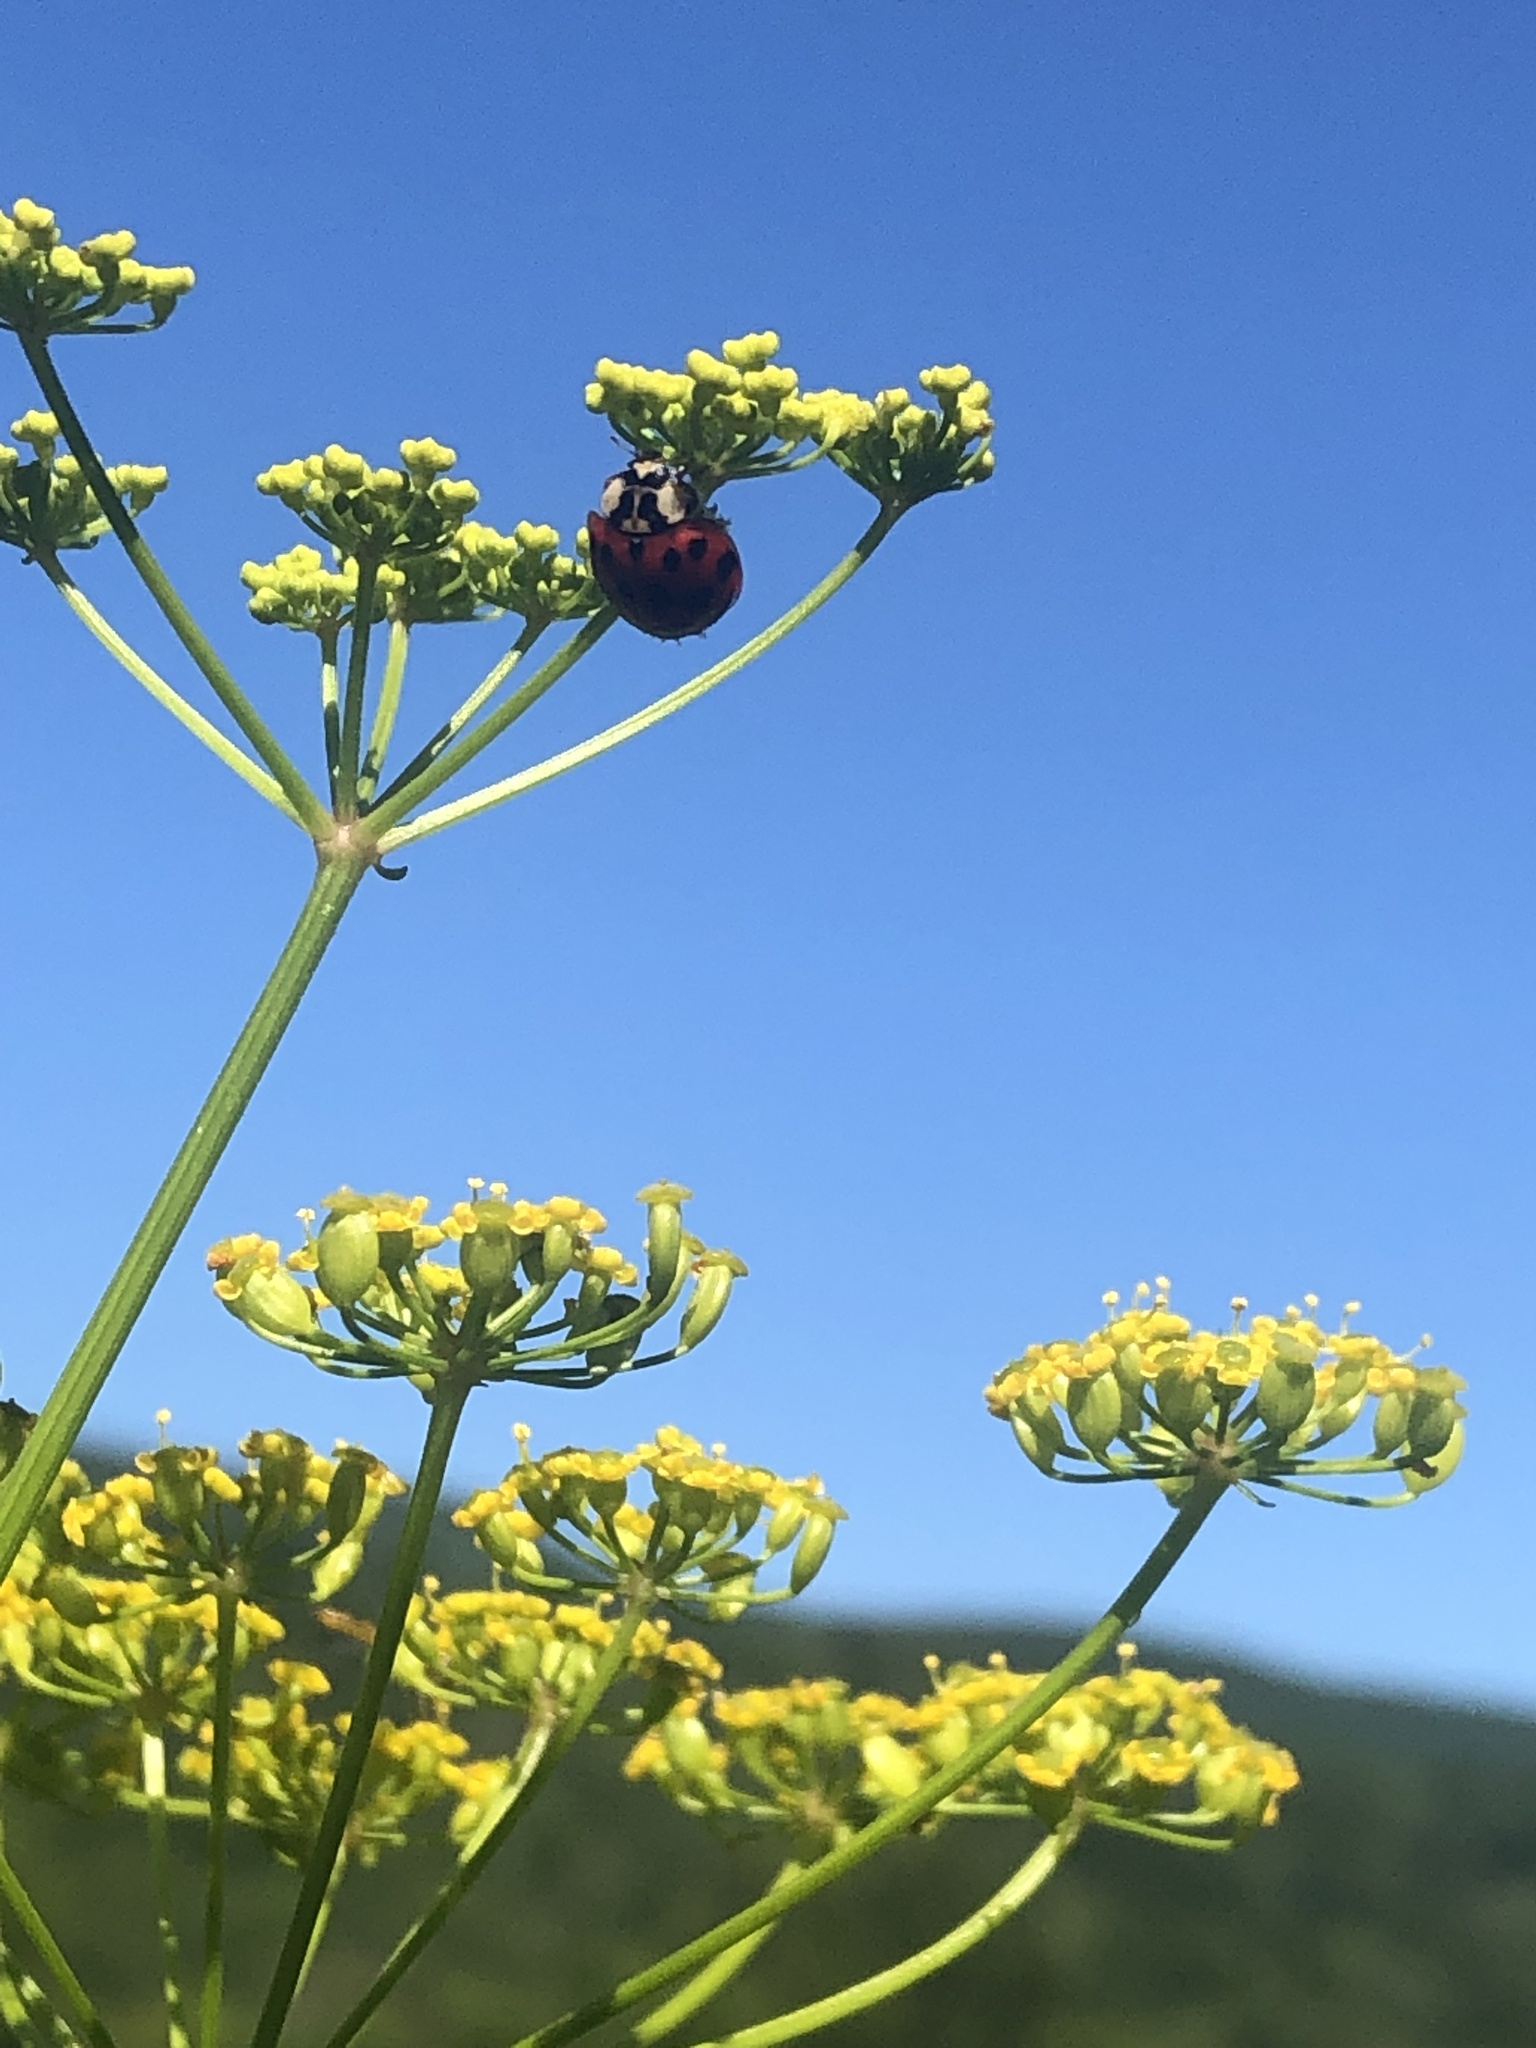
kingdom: Animalia
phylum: Arthropoda
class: Insecta
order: Coleoptera
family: Coccinellidae
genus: Harmonia
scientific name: Harmonia axyridis
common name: Harlequin ladybird
